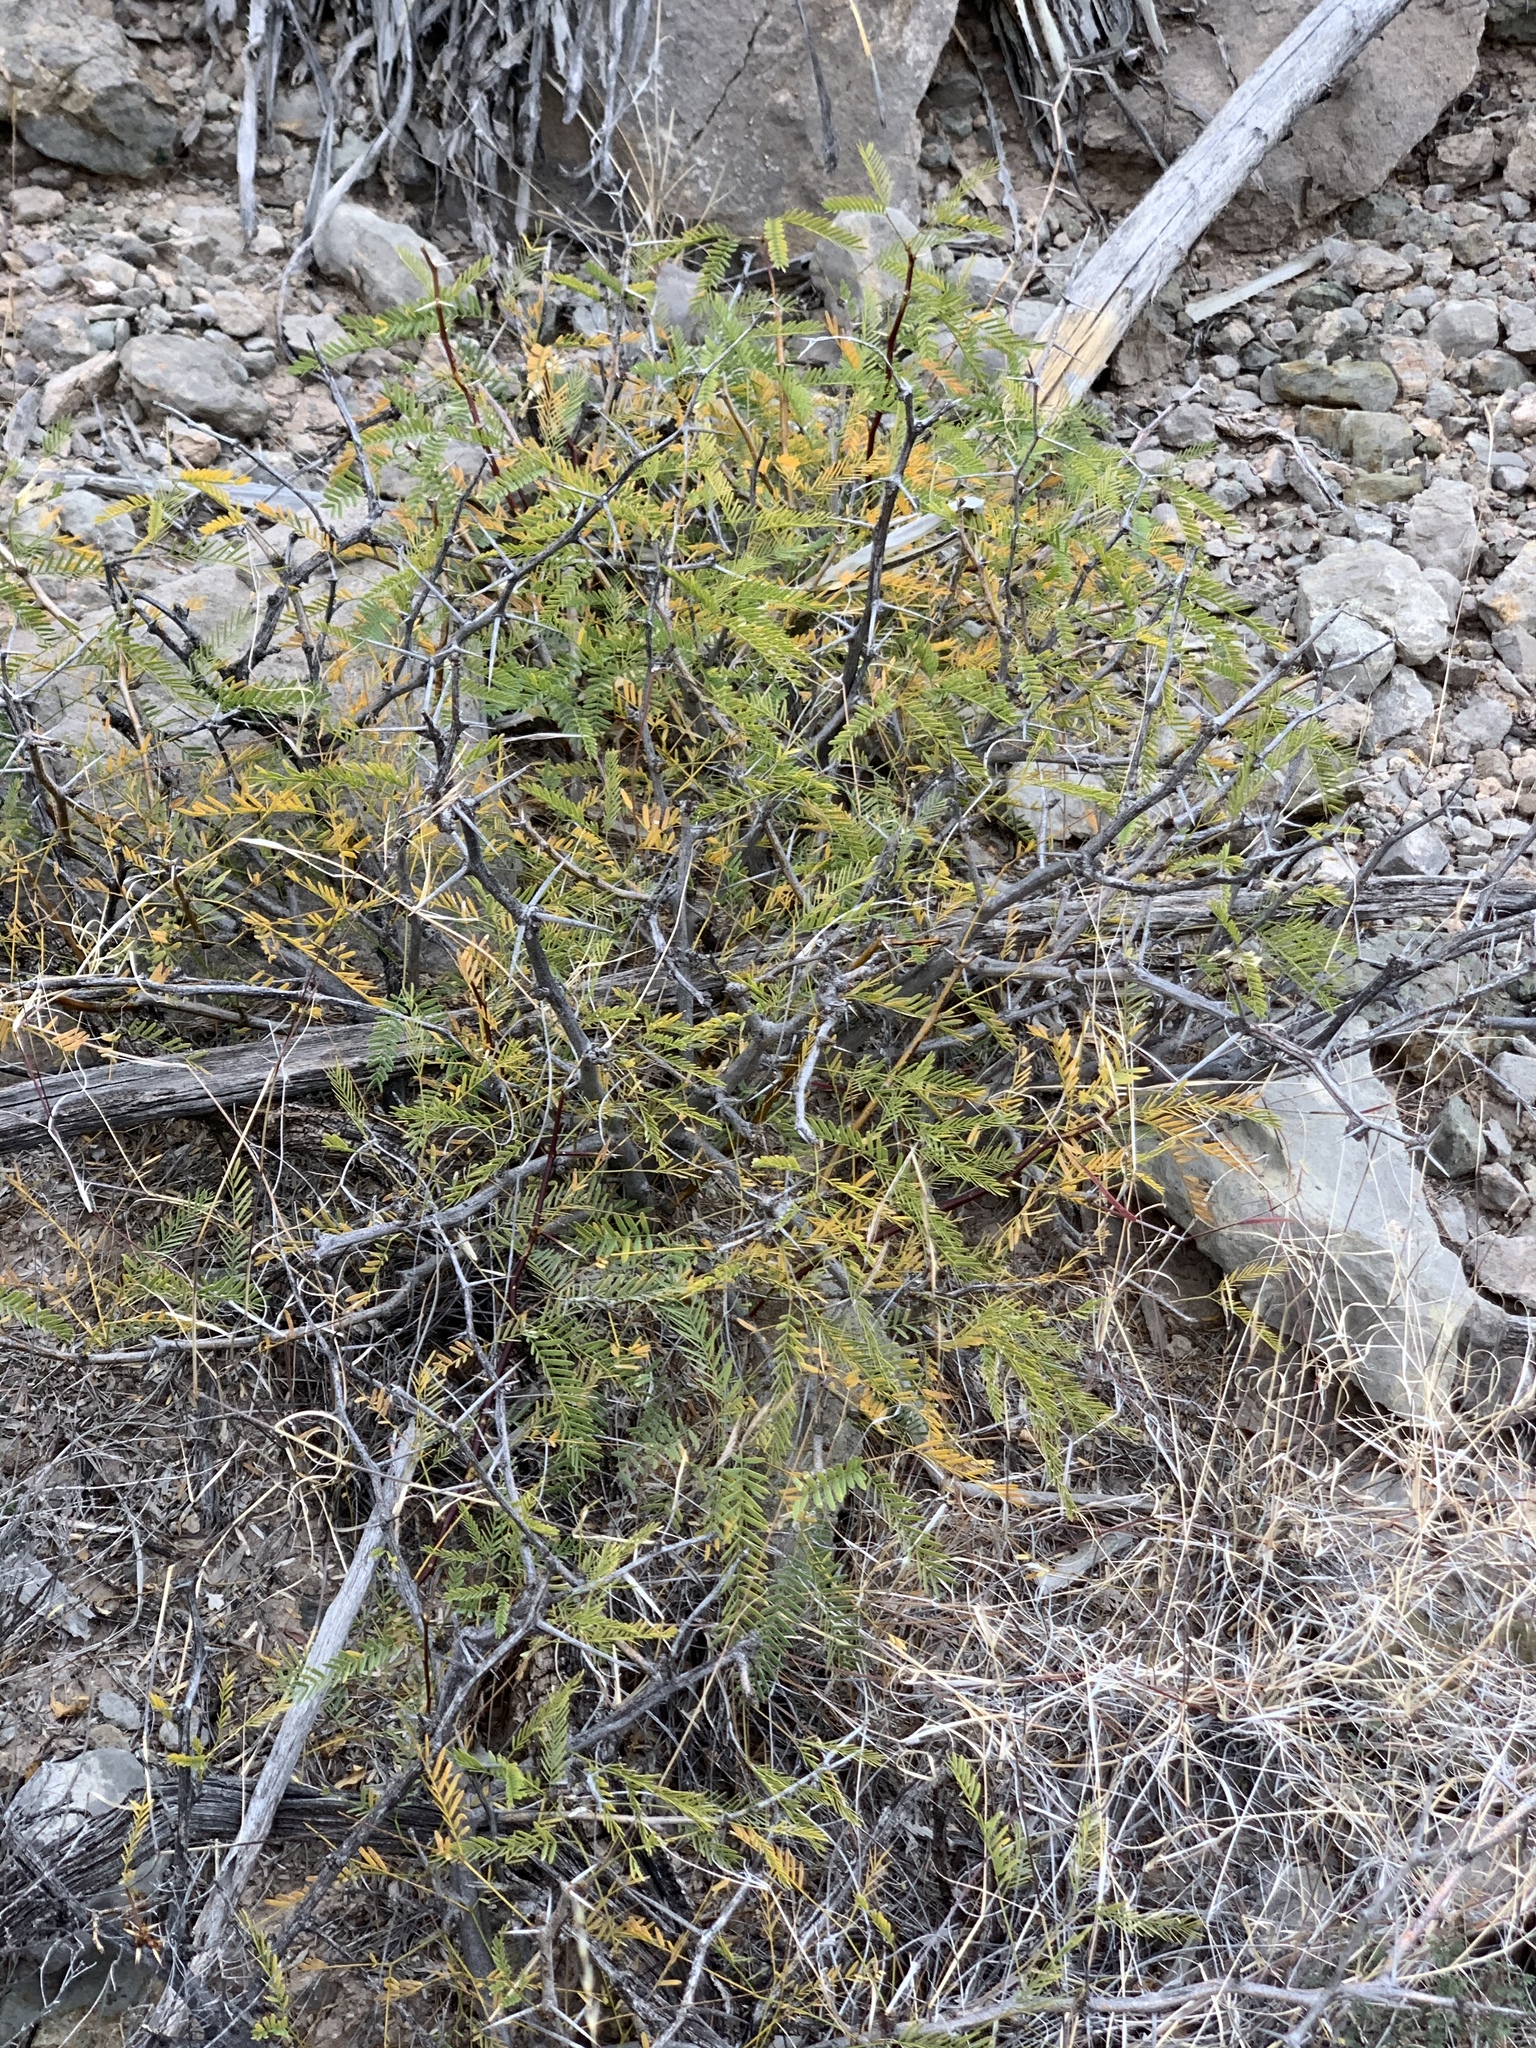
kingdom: Plantae
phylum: Tracheophyta
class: Magnoliopsida
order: Fabales
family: Fabaceae
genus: Prosopis
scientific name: Prosopis glandulosa
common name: Honey mesquite
